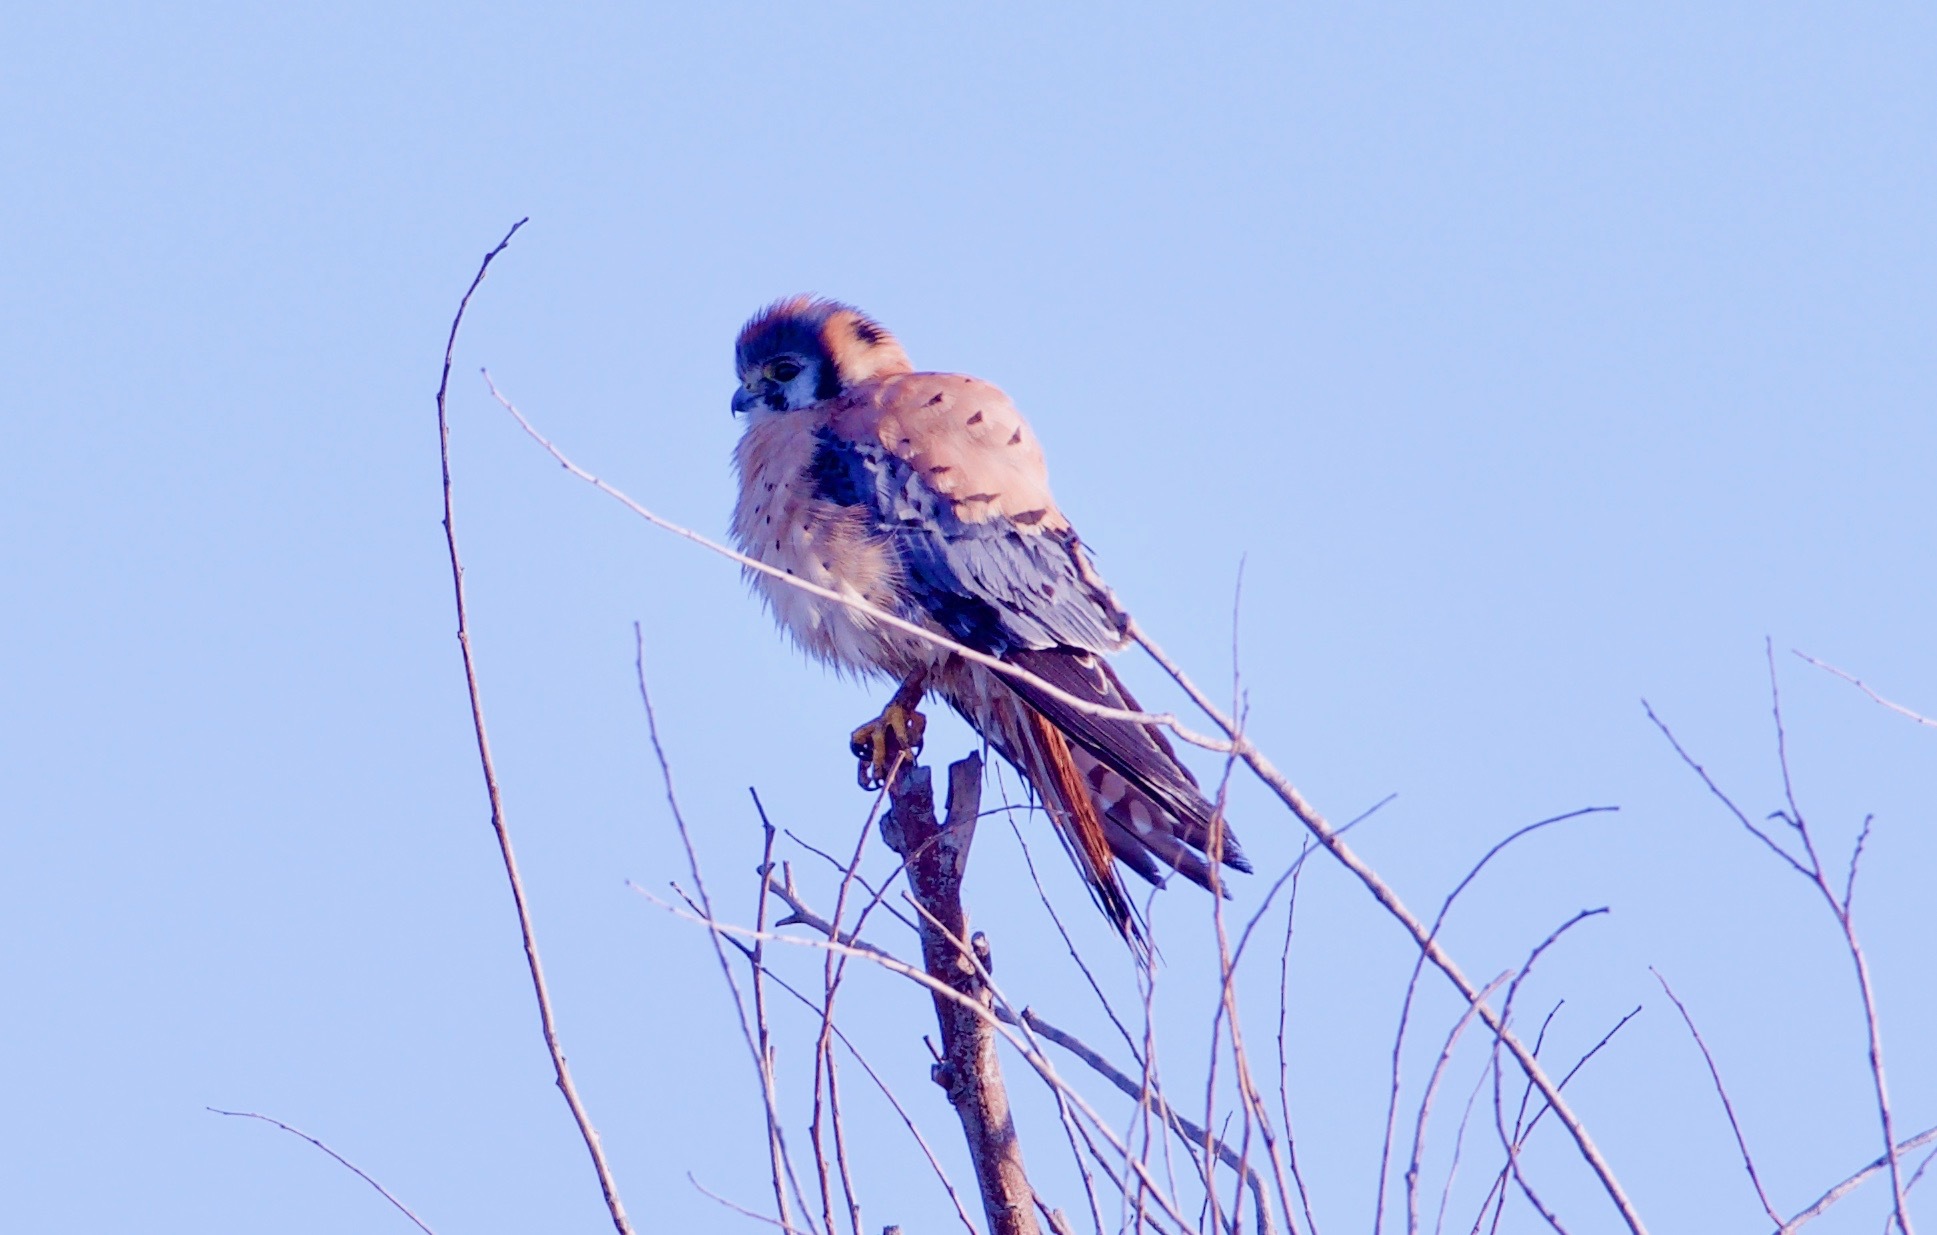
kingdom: Animalia
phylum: Chordata
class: Aves
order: Falconiformes
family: Falconidae
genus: Falco
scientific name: Falco sparverius
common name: American kestrel
